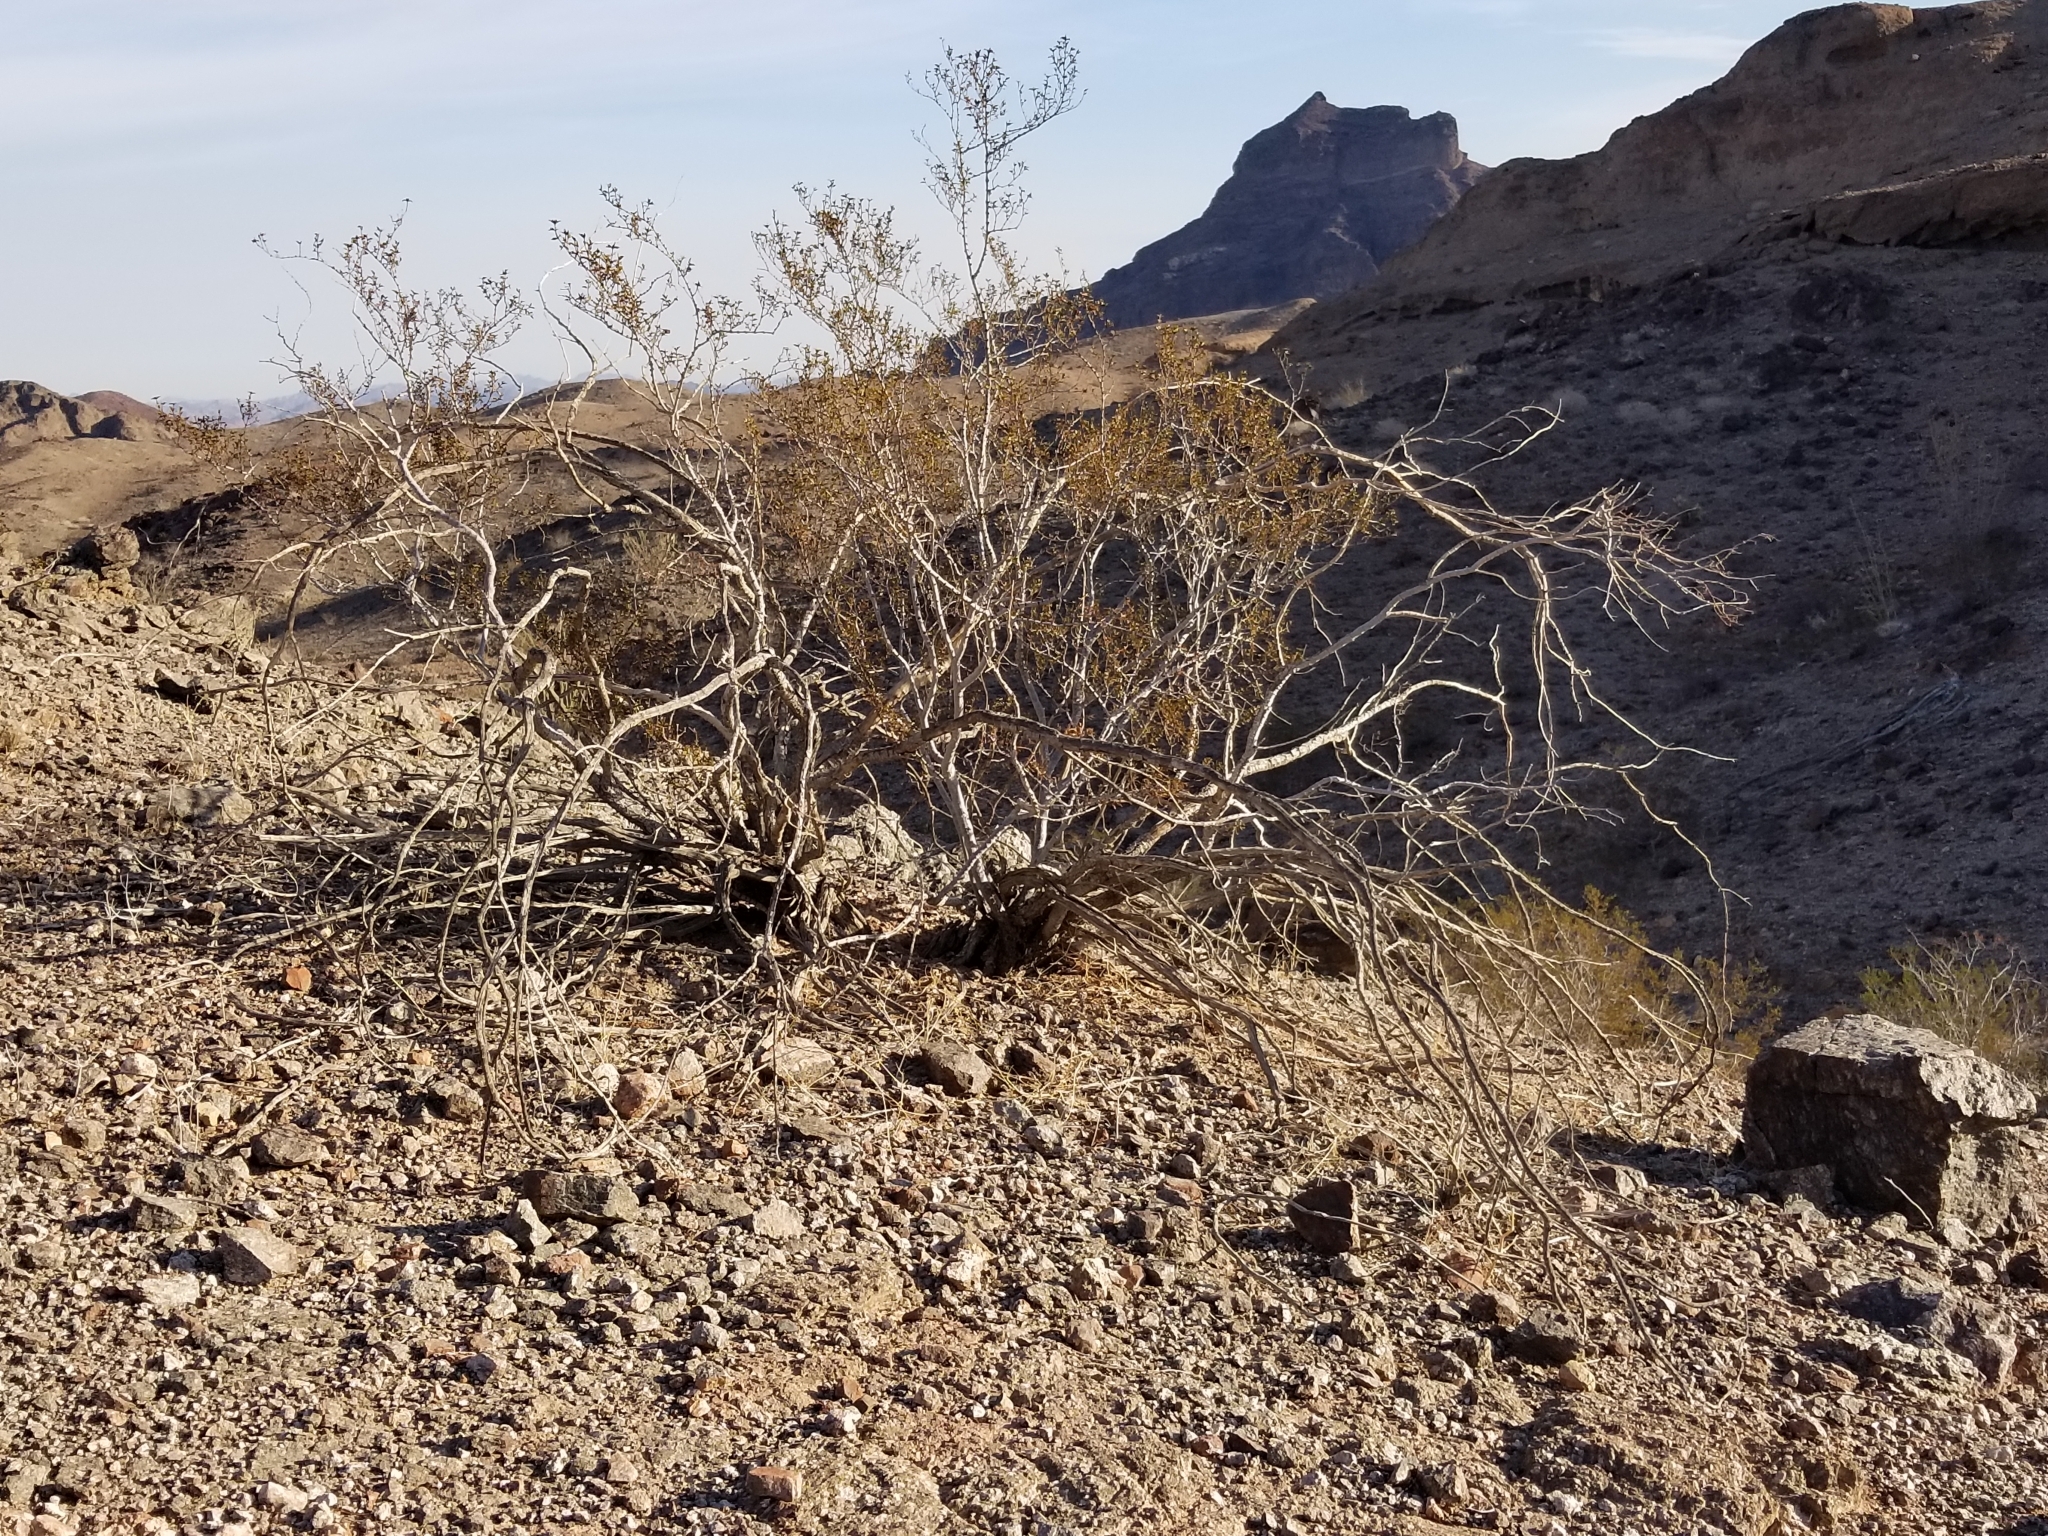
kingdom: Plantae
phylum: Tracheophyta
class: Magnoliopsida
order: Zygophyllales
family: Zygophyllaceae
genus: Larrea
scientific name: Larrea tridentata
